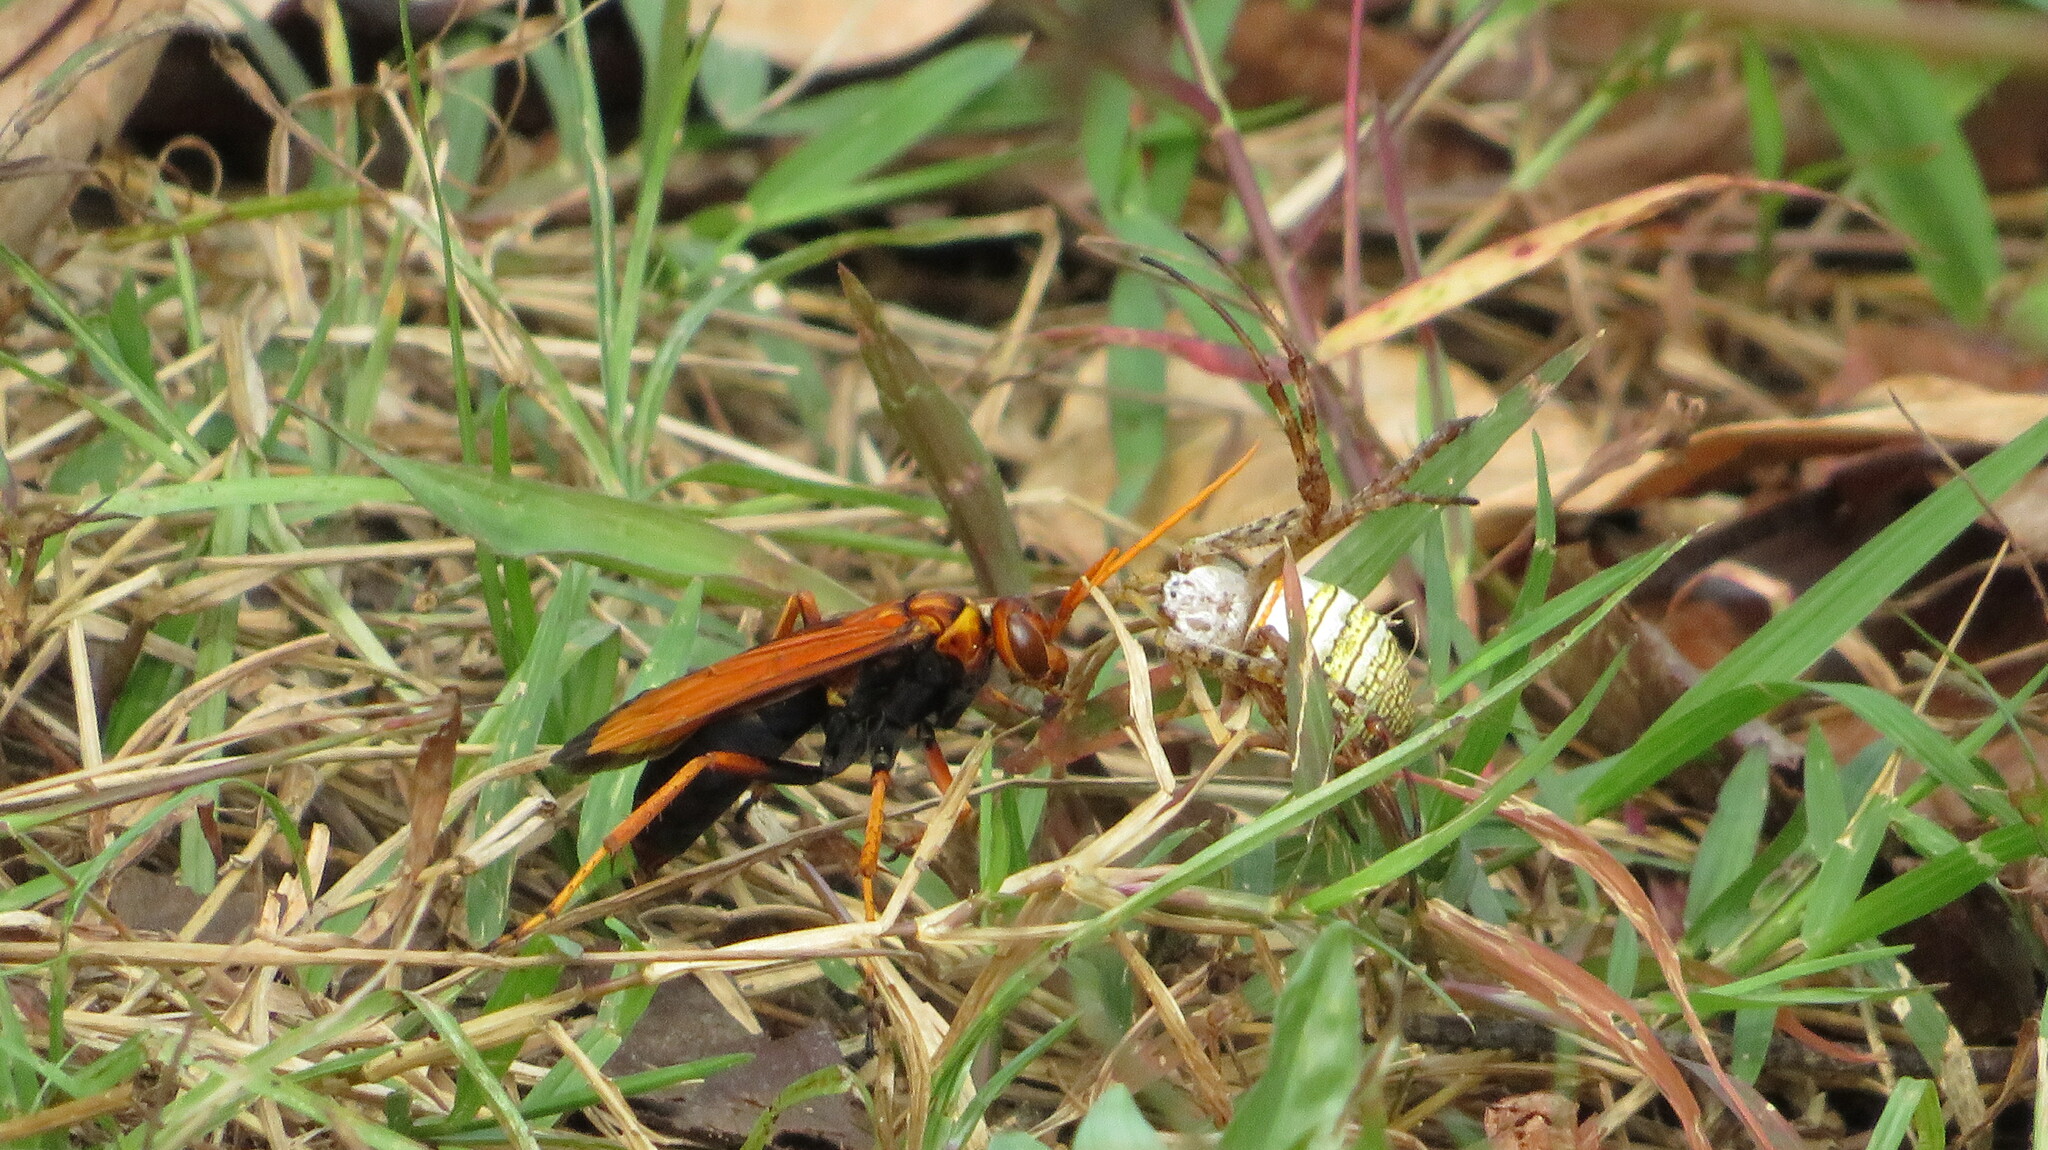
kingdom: Animalia
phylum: Arthropoda
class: Arachnida
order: Araneae
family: Araneidae
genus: Argiope
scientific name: Argiope aemula
